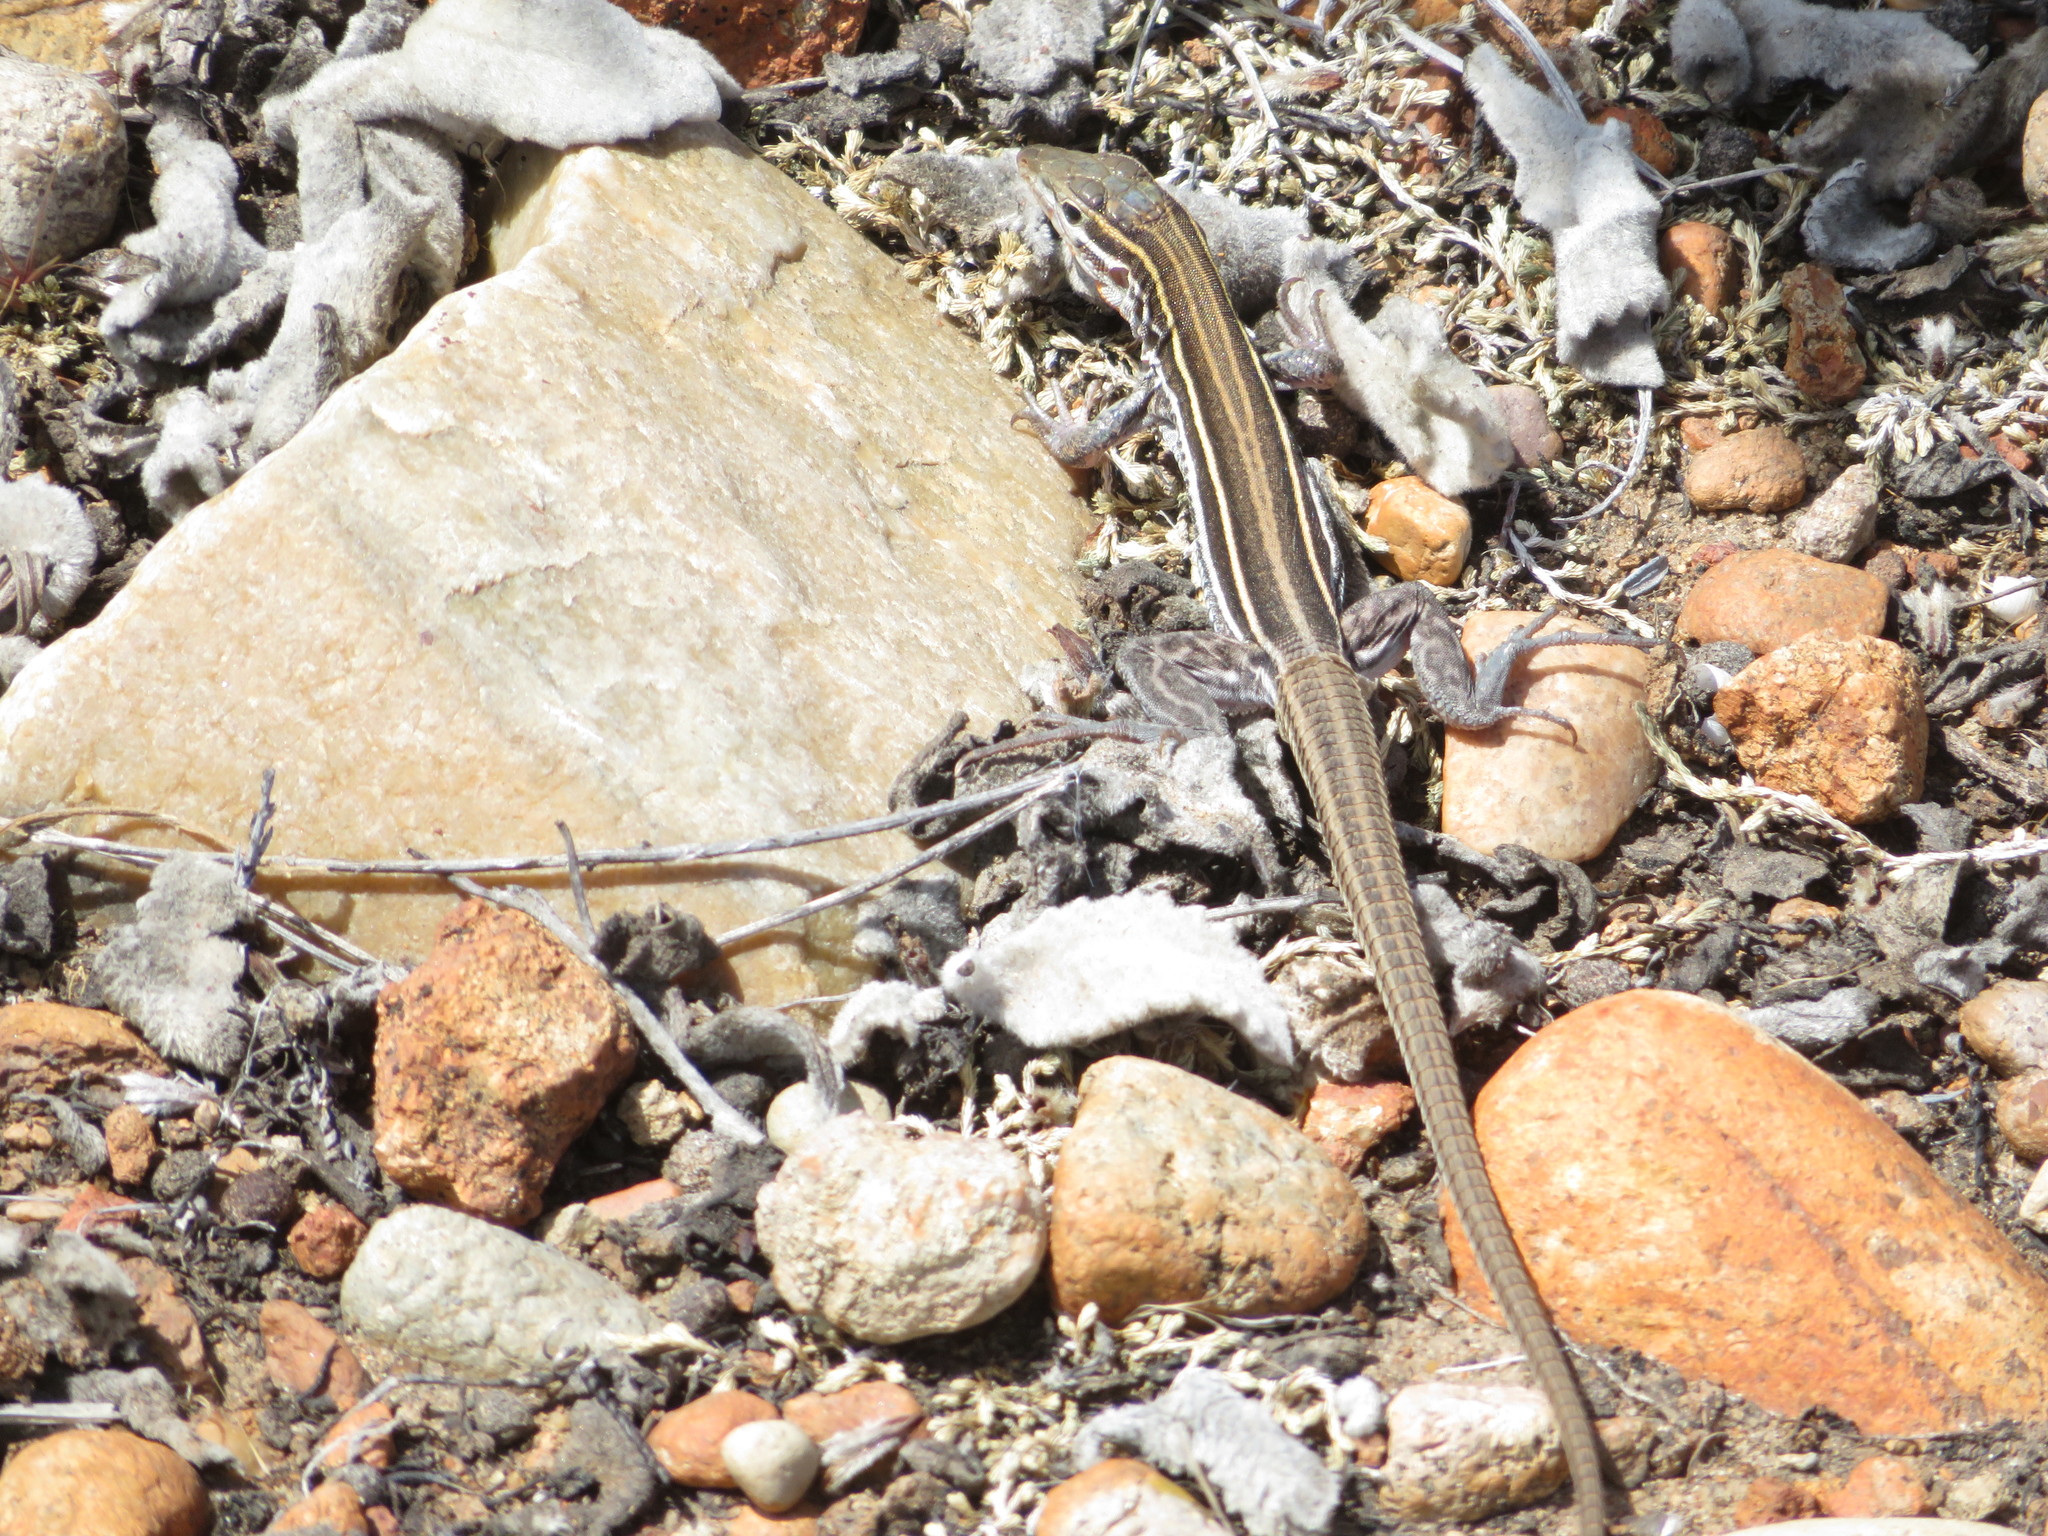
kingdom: Animalia
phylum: Chordata
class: Squamata
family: Teiidae
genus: Aspidoscelis
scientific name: Aspidoscelis hyperythrus
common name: Orange-throated race-runner
